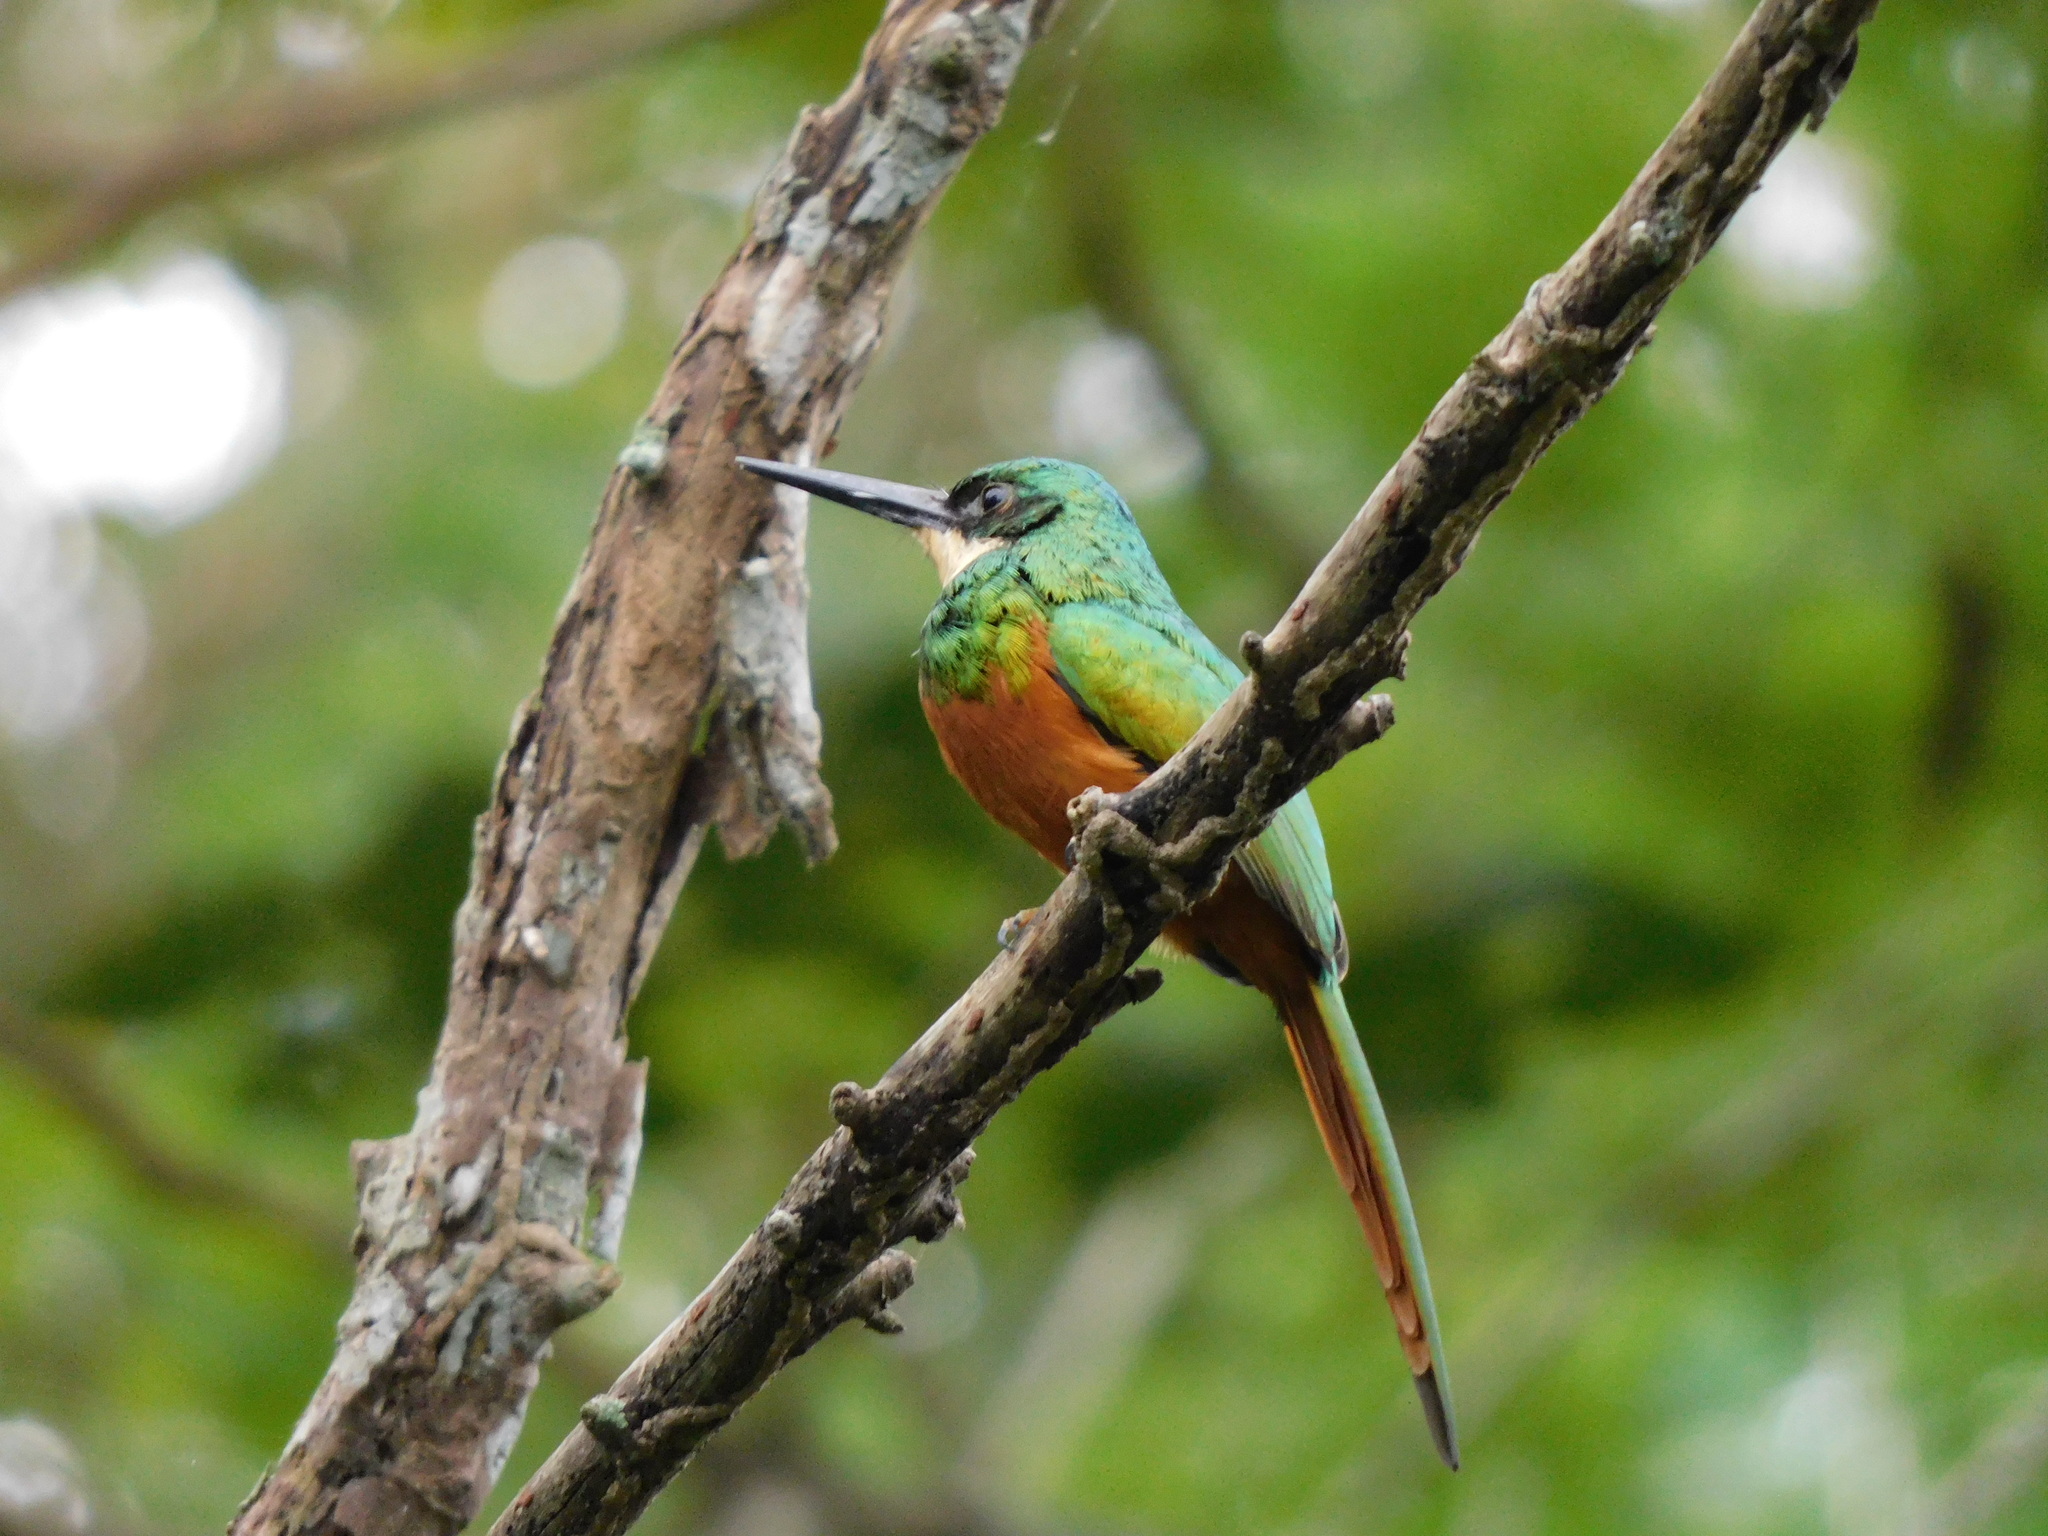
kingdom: Animalia
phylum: Chordata
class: Aves
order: Piciformes
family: Galbulidae
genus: Galbula
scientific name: Galbula ruficauda
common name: Rufous-tailed jacamar
